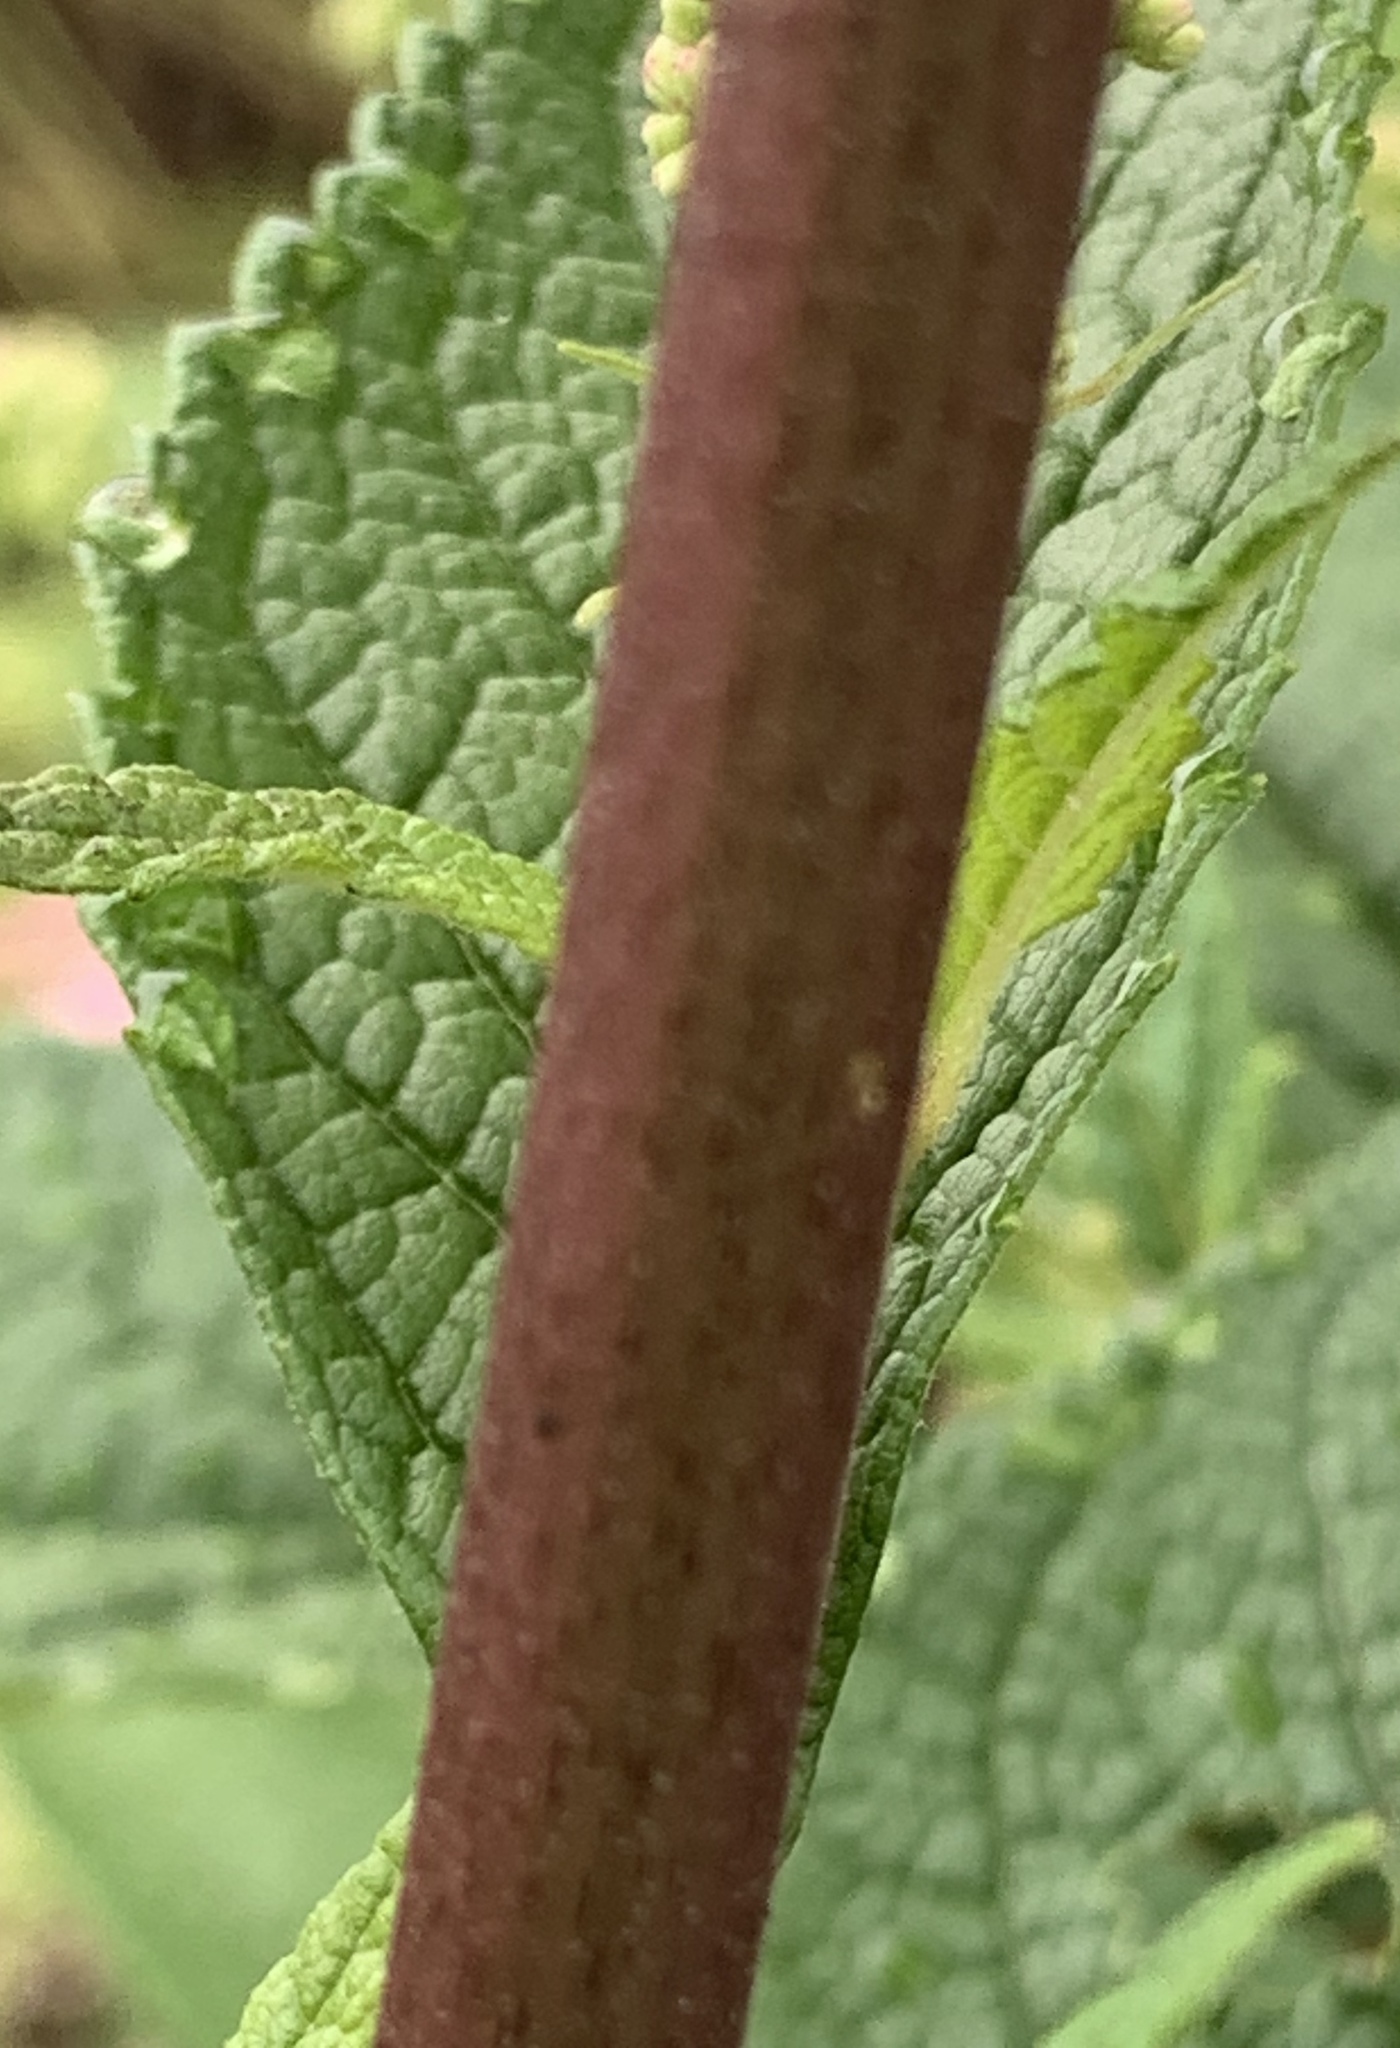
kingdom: Plantae
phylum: Tracheophyta
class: Magnoliopsida
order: Asterales
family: Asteraceae
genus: Eutrochium
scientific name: Eutrochium maculatum
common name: Spotted joe pye weed
